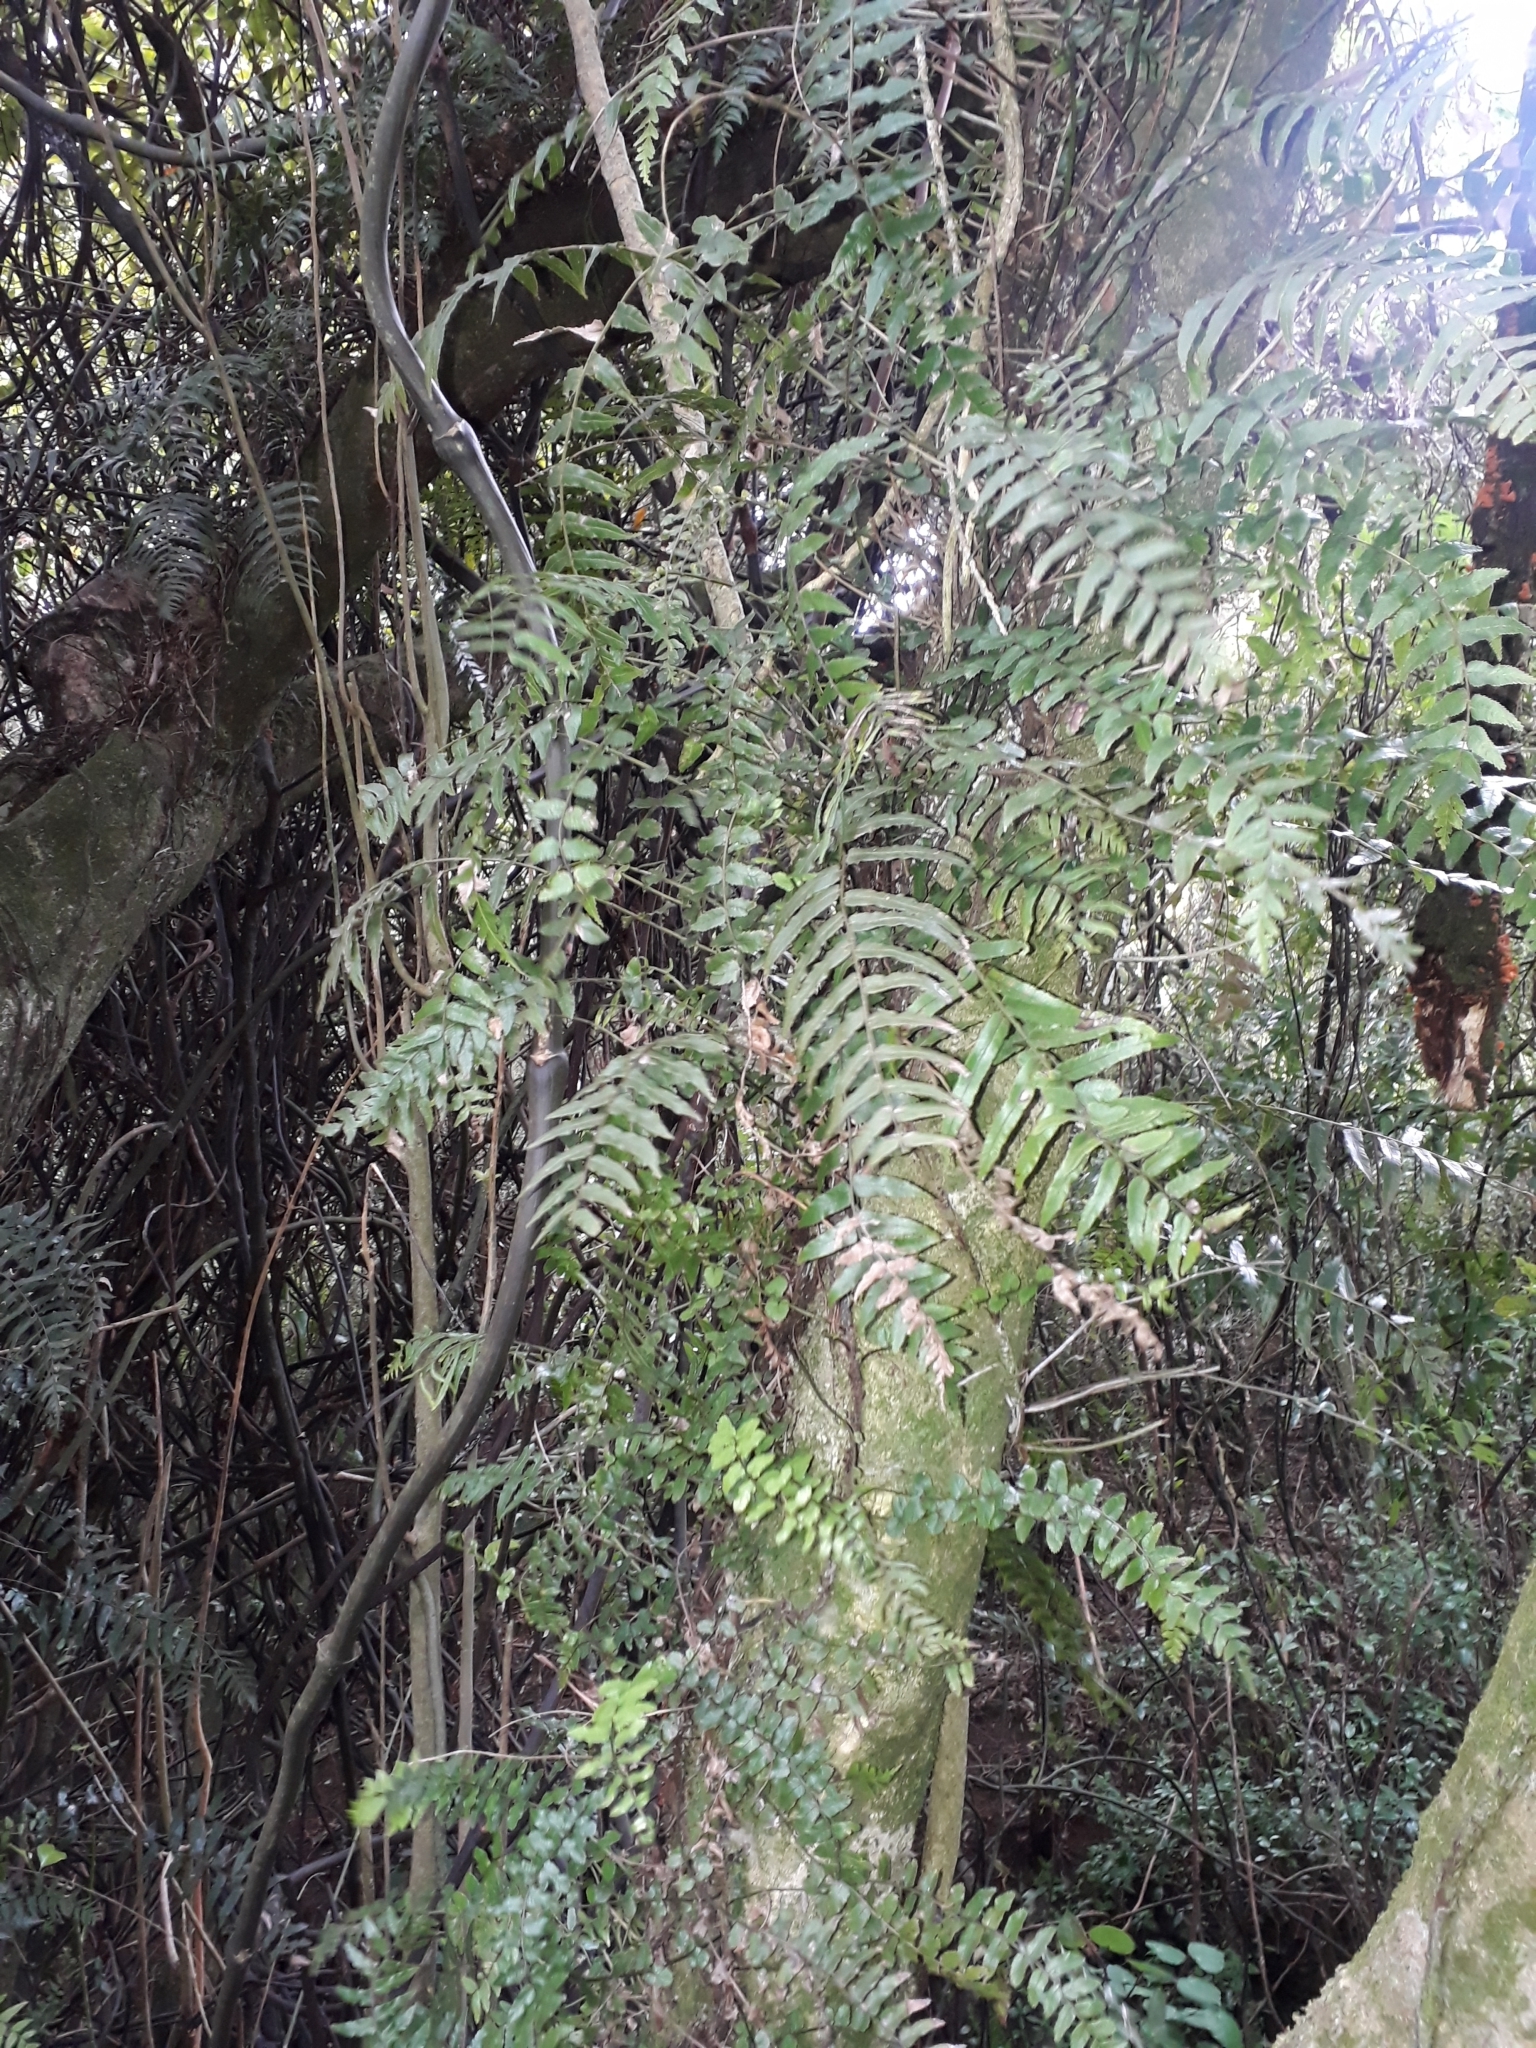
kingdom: Plantae
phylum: Tracheophyta
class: Polypodiopsida
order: Polypodiales
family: Blechnaceae
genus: Icarus
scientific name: Icarus filiformis
